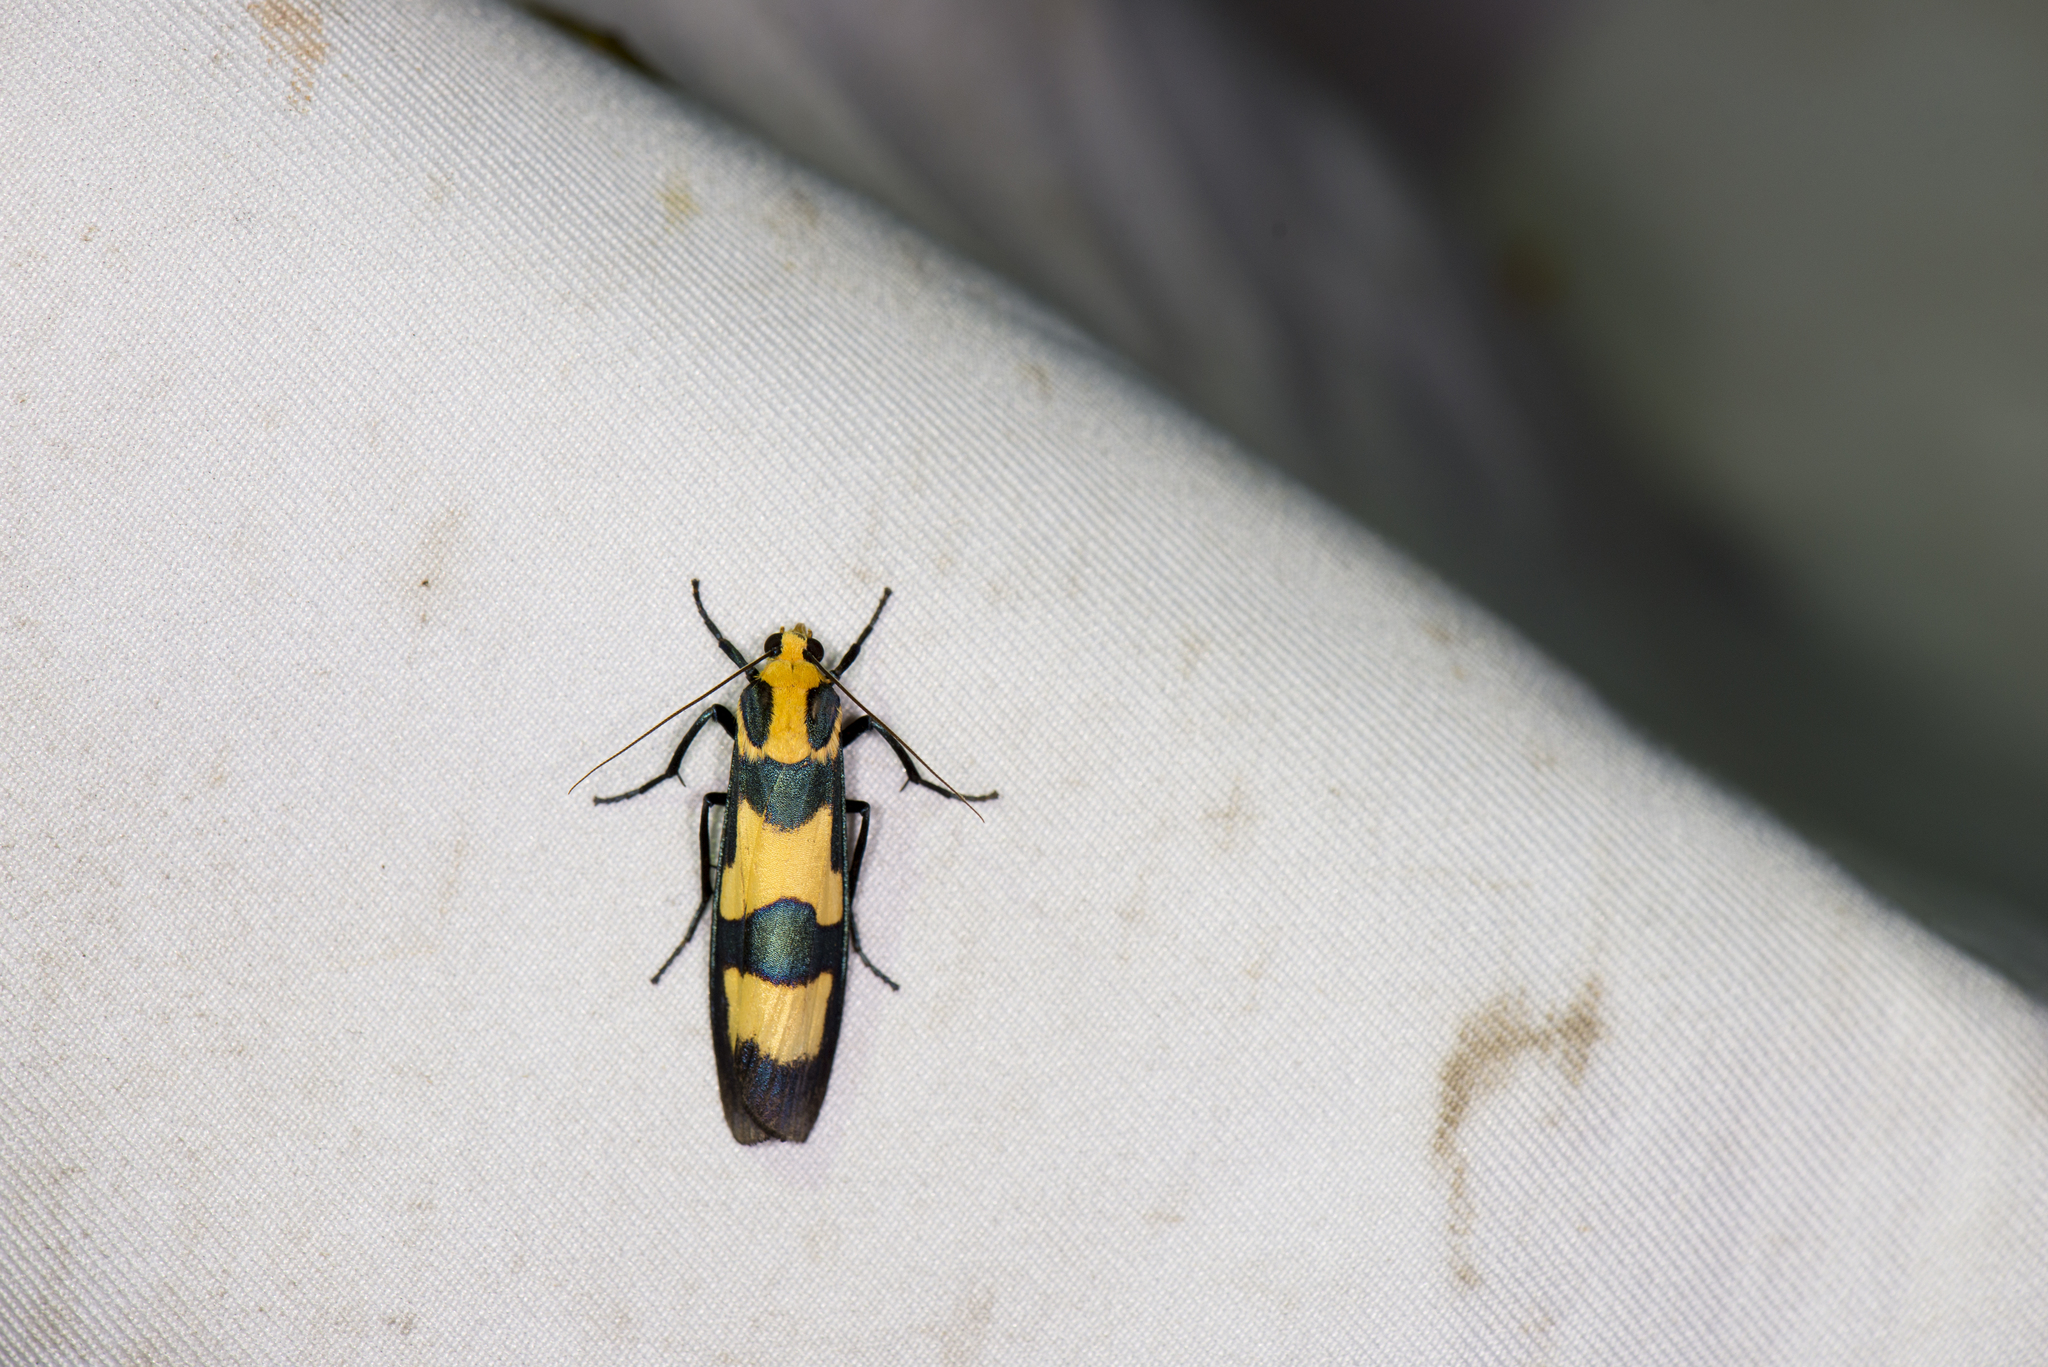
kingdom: Animalia
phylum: Arthropoda
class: Insecta
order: Lepidoptera
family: Erebidae
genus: Chrysaeglia
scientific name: Chrysaeglia magnifica
